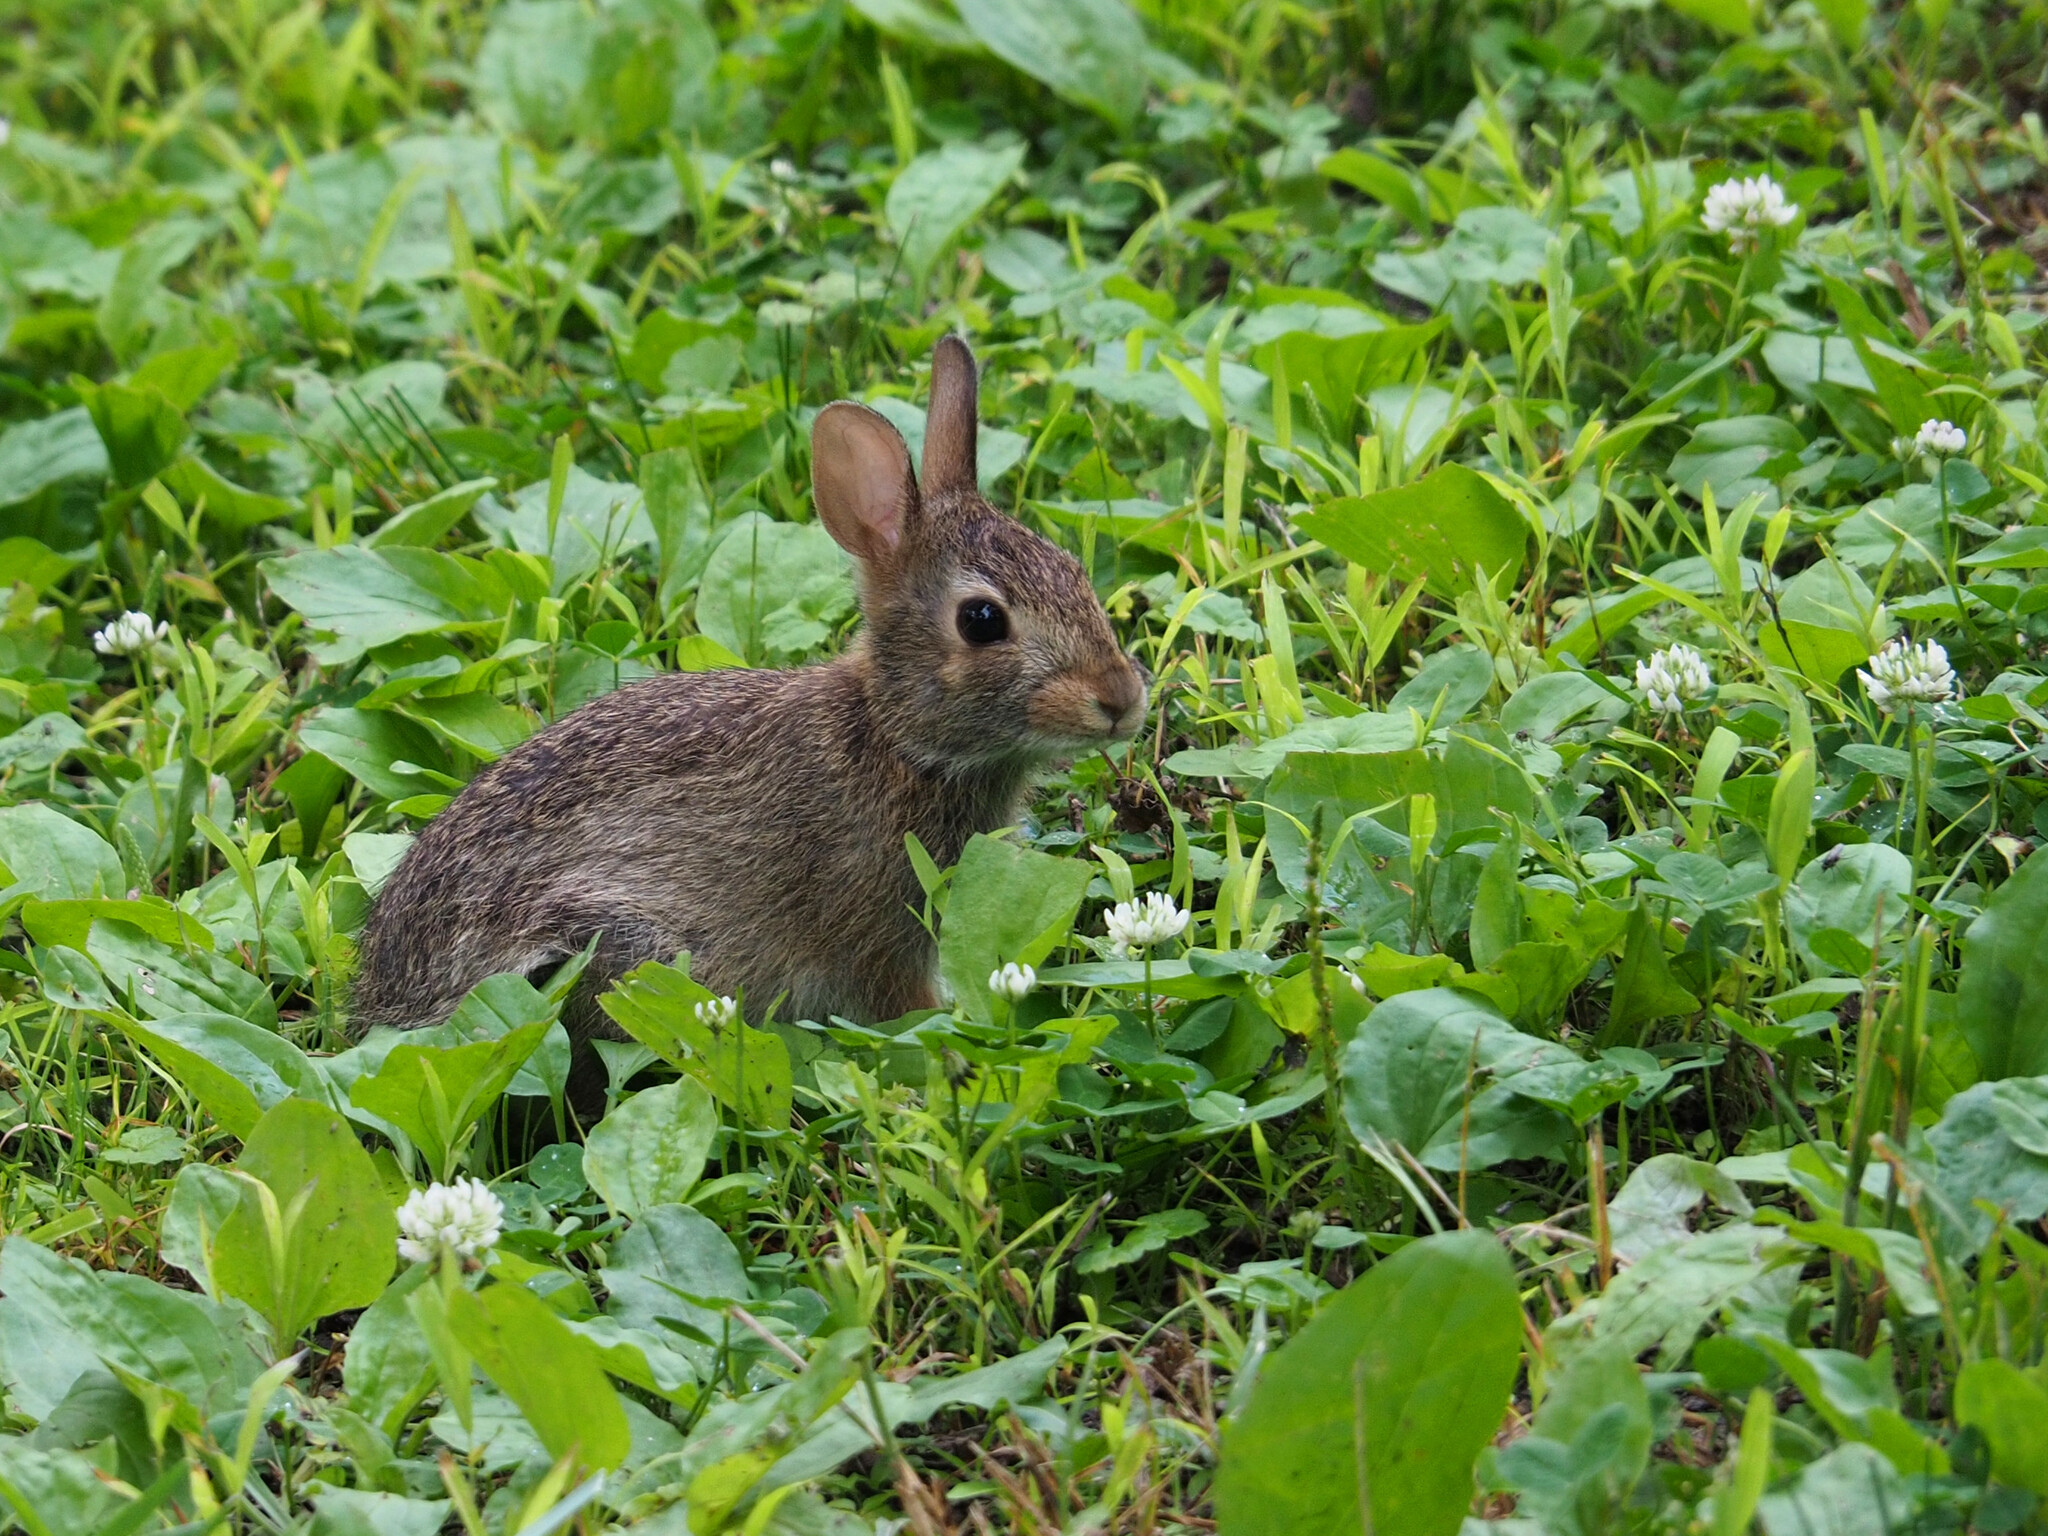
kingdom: Animalia
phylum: Chordata
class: Mammalia
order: Lagomorpha
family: Leporidae
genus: Sylvilagus
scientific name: Sylvilagus floridanus
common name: Eastern cottontail
